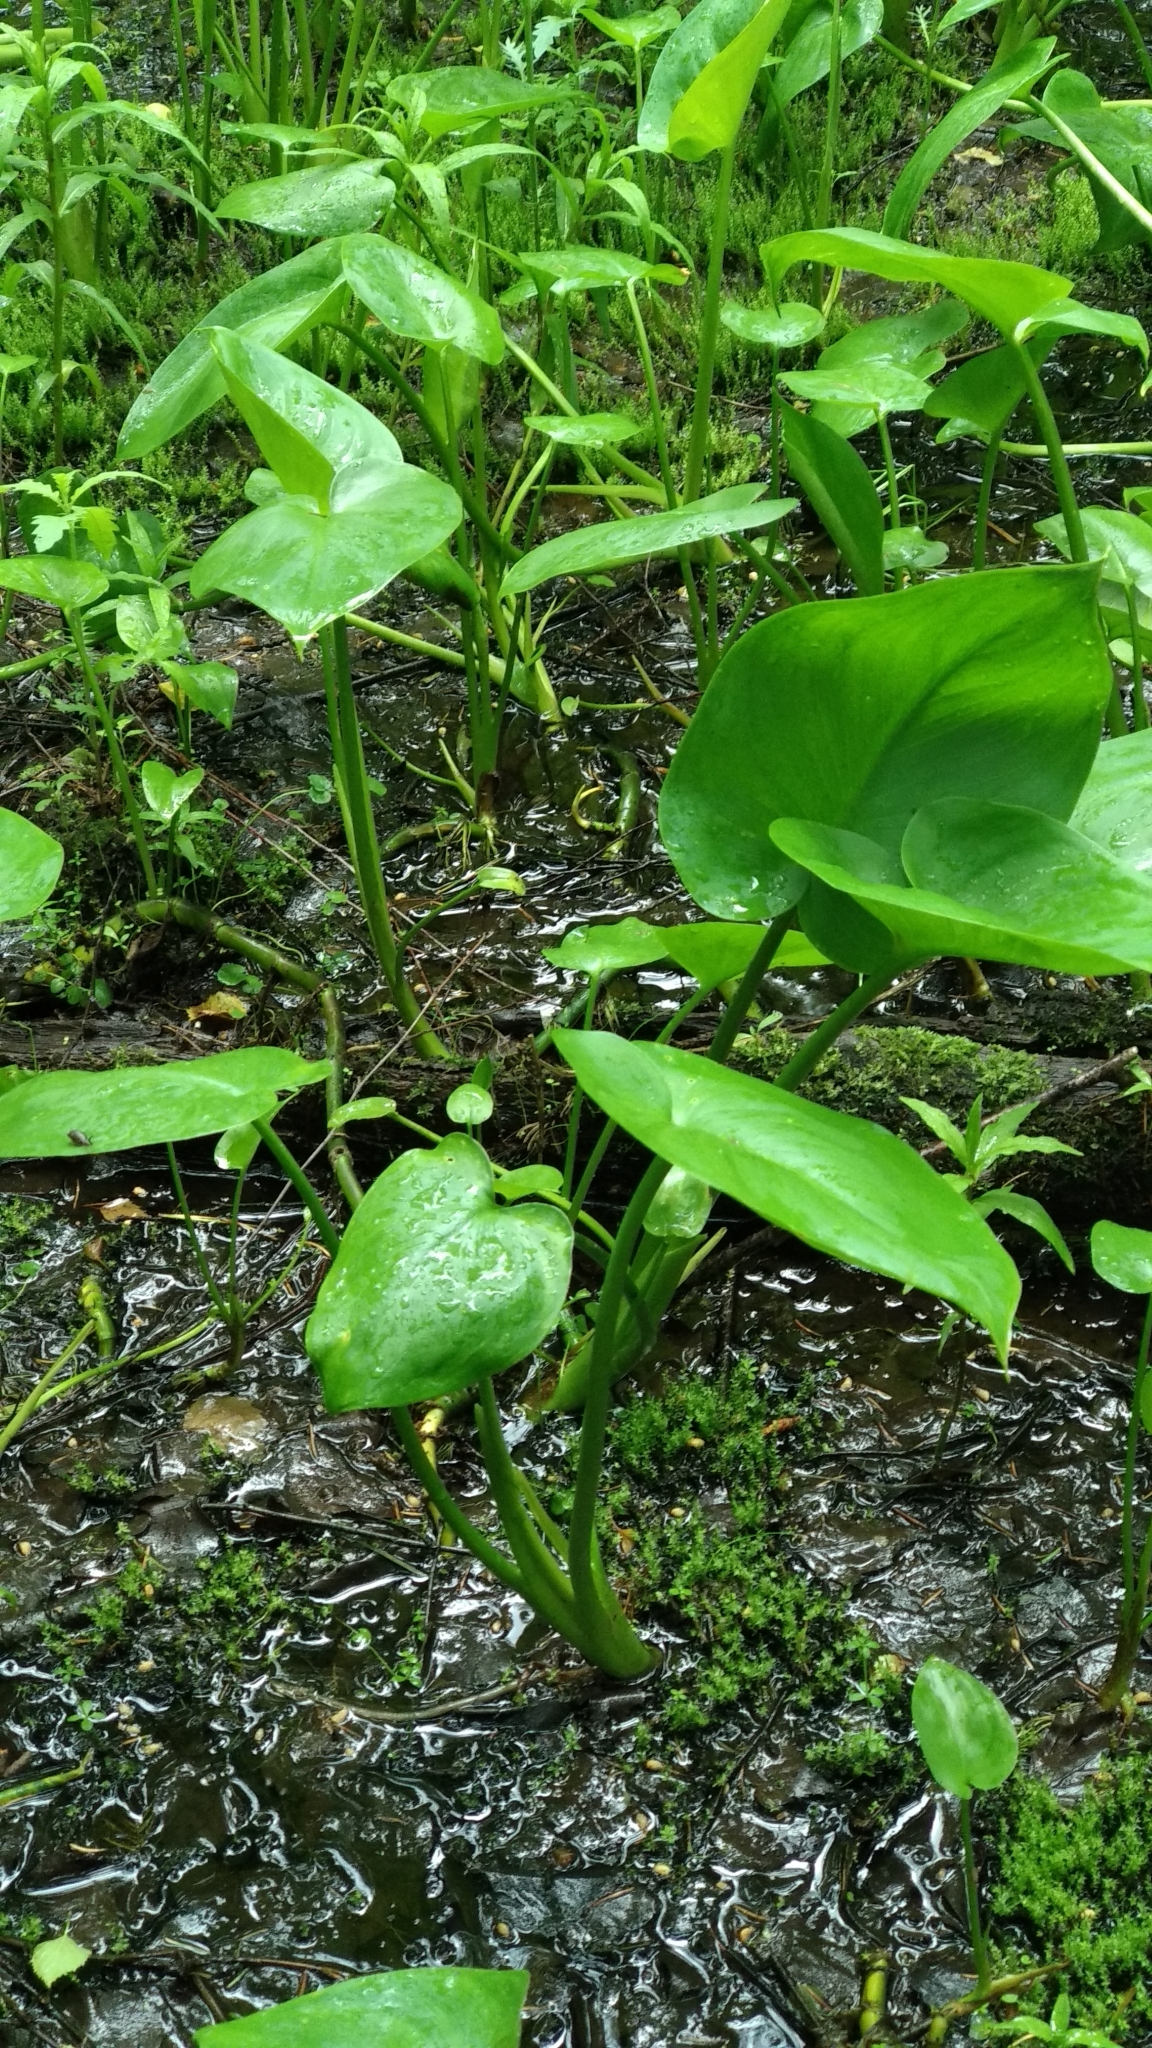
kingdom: Plantae
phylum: Tracheophyta
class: Liliopsida
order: Alismatales
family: Araceae
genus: Calla
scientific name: Calla palustris
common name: Bog arum
